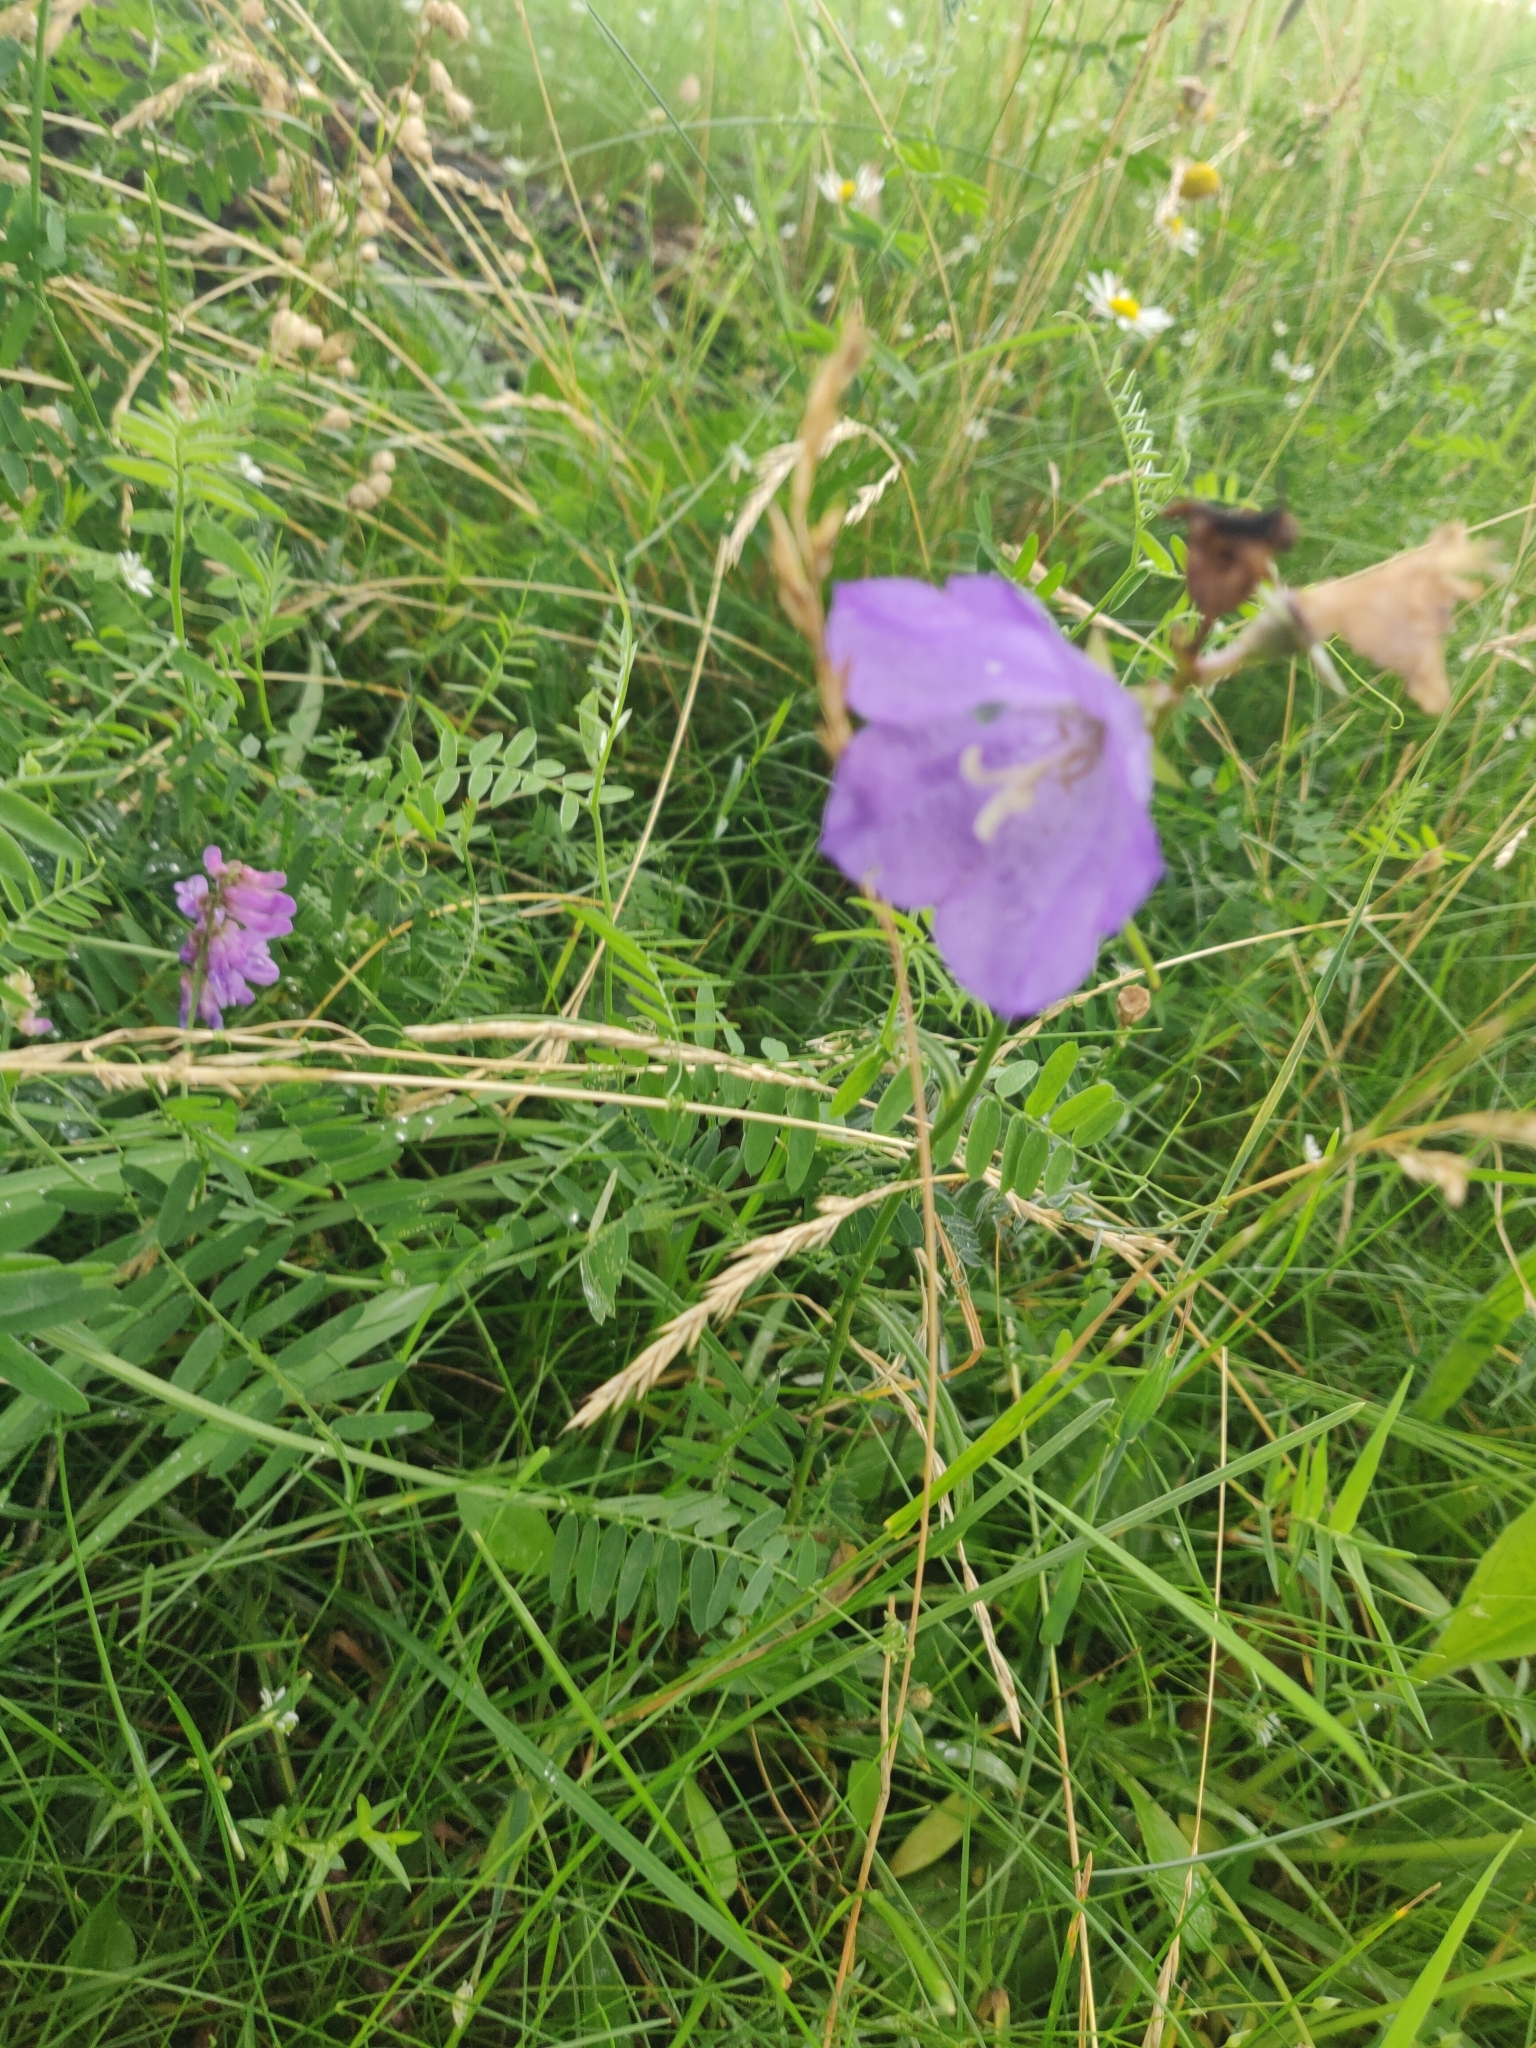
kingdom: Plantae
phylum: Tracheophyta
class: Magnoliopsida
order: Asterales
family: Campanulaceae
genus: Campanula
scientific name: Campanula persicifolia
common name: Peach-leaved bellflower
